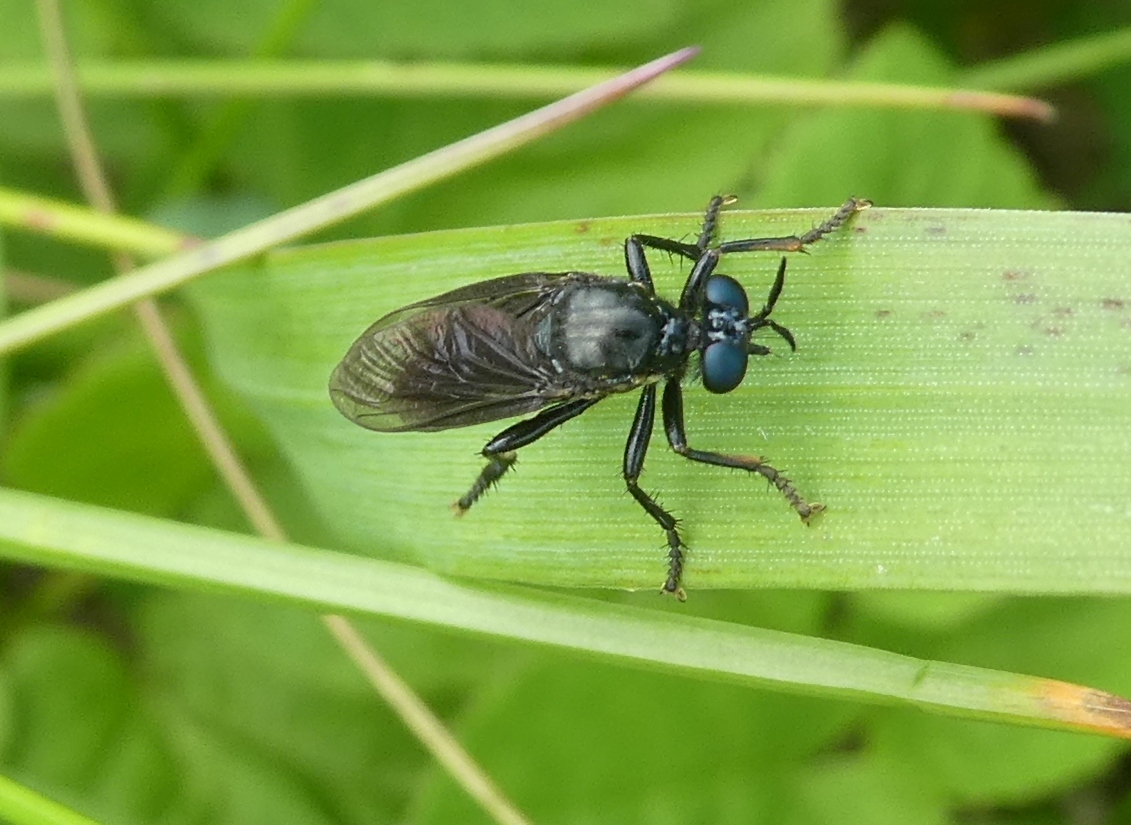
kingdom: Animalia
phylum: Arthropoda
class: Insecta
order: Diptera
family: Asilidae
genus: Dioctria
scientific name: Dioctria atricapilla
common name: Violet black-legged
